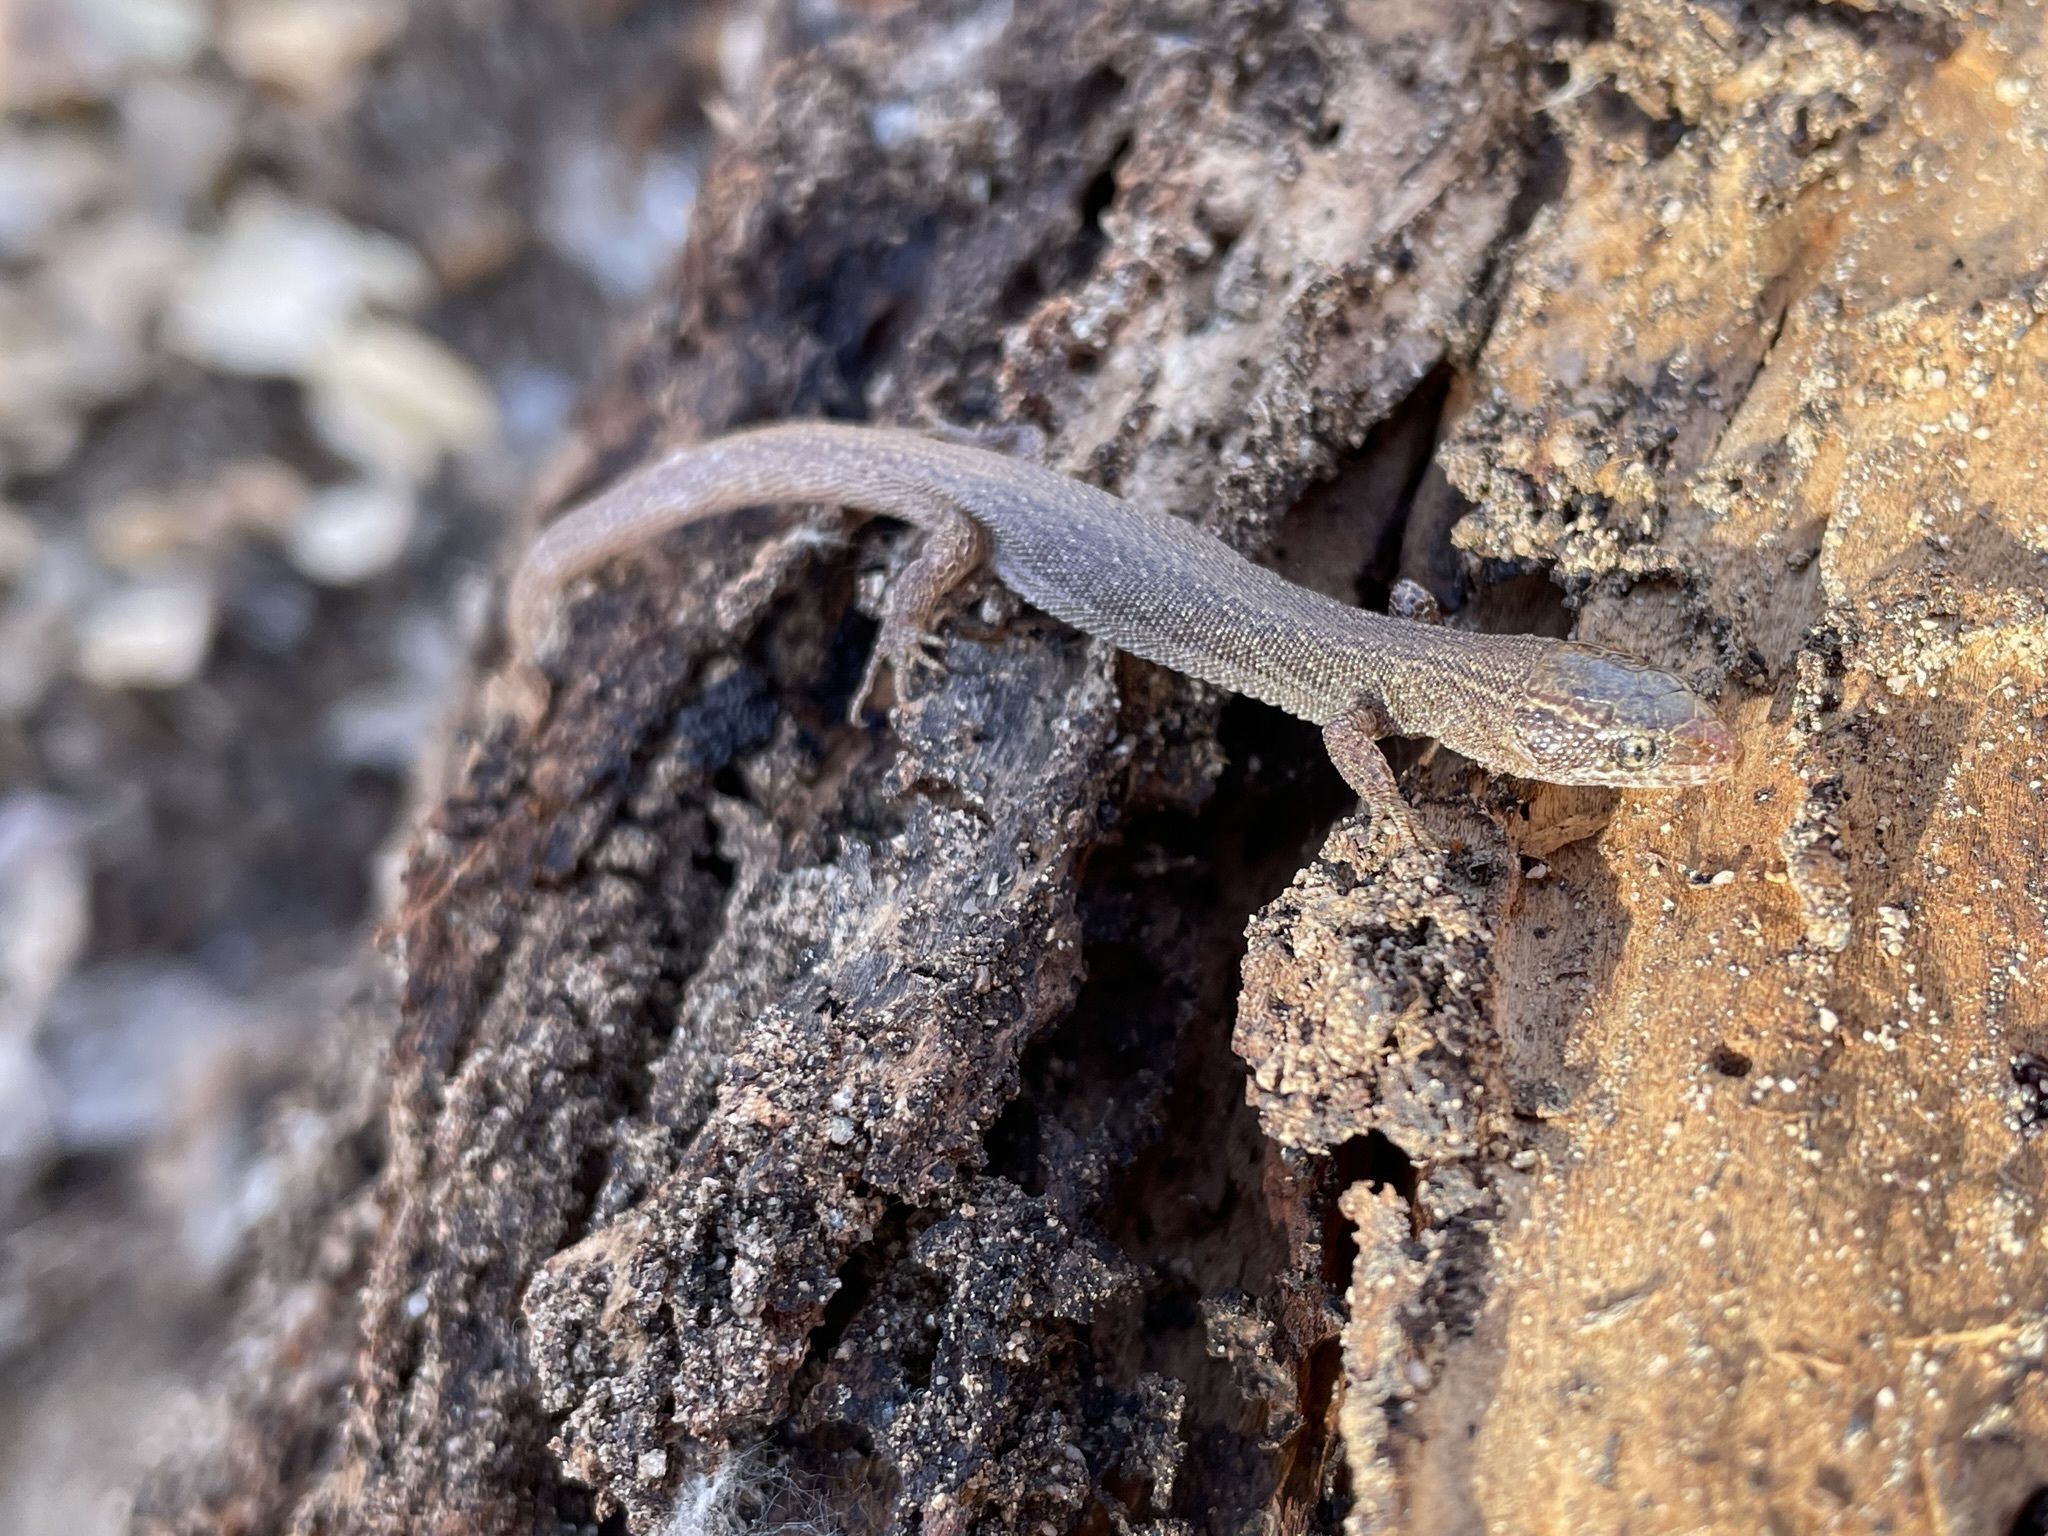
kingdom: Animalia
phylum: Chordata
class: Squamata
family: Xantusiidae
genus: Xantusia
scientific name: Xantusia vigilis
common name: Desert night lizard
